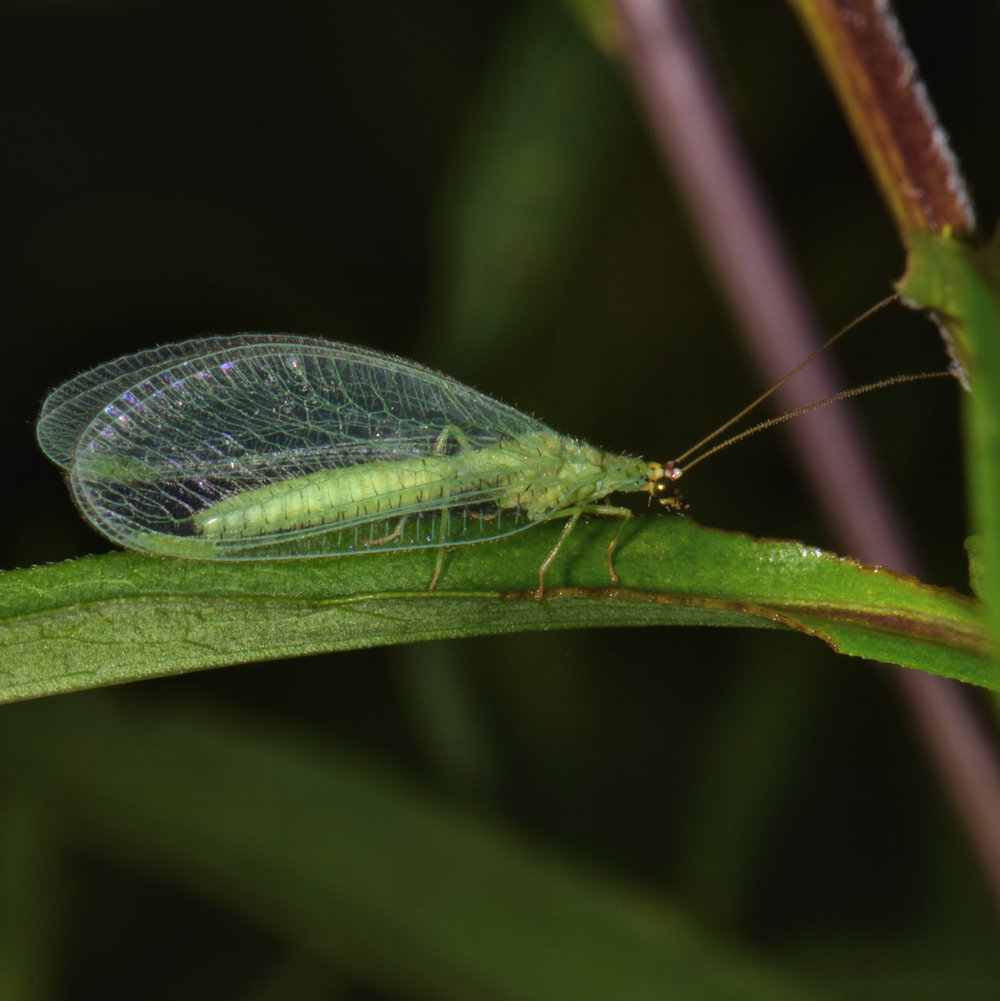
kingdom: Animalia
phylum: Arthropoda
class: Insecta
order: Neuroptera
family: Chrysopidae
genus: Chrysopa
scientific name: Chrysopa oculata
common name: Golden-eyed lacewing
